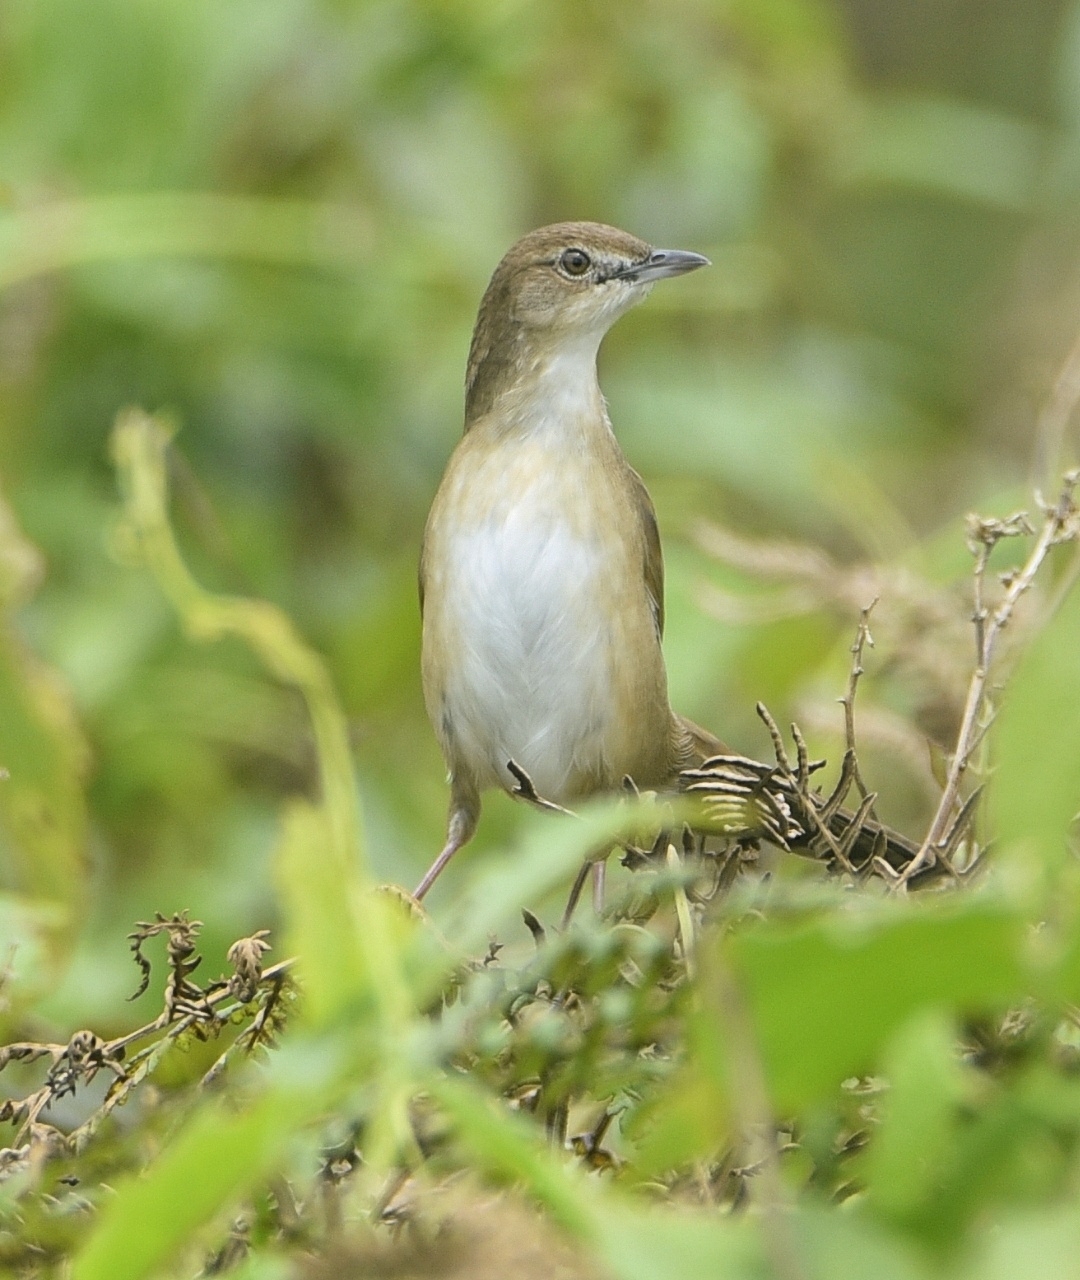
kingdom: Animalia
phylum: Chordata
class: Aves
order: Passeriformes
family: Locustellidae
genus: Schoenicola
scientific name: Schoenicola platyurus
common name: Broad-tailed grassbird
